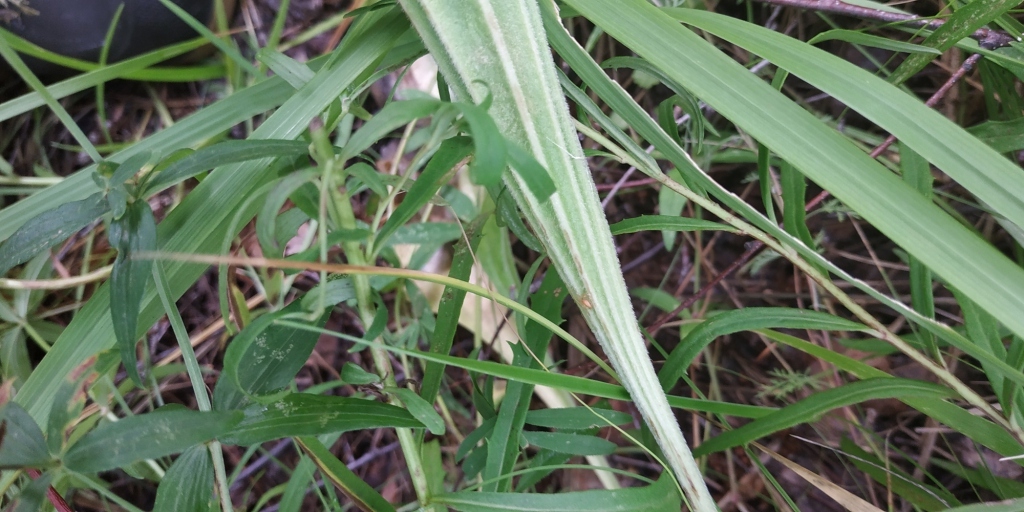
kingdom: Plantae
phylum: Tracheophyta
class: Magnoliopsida
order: Lamiales
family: Plantaginaceae
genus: Plantago
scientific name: Plantago maxima
